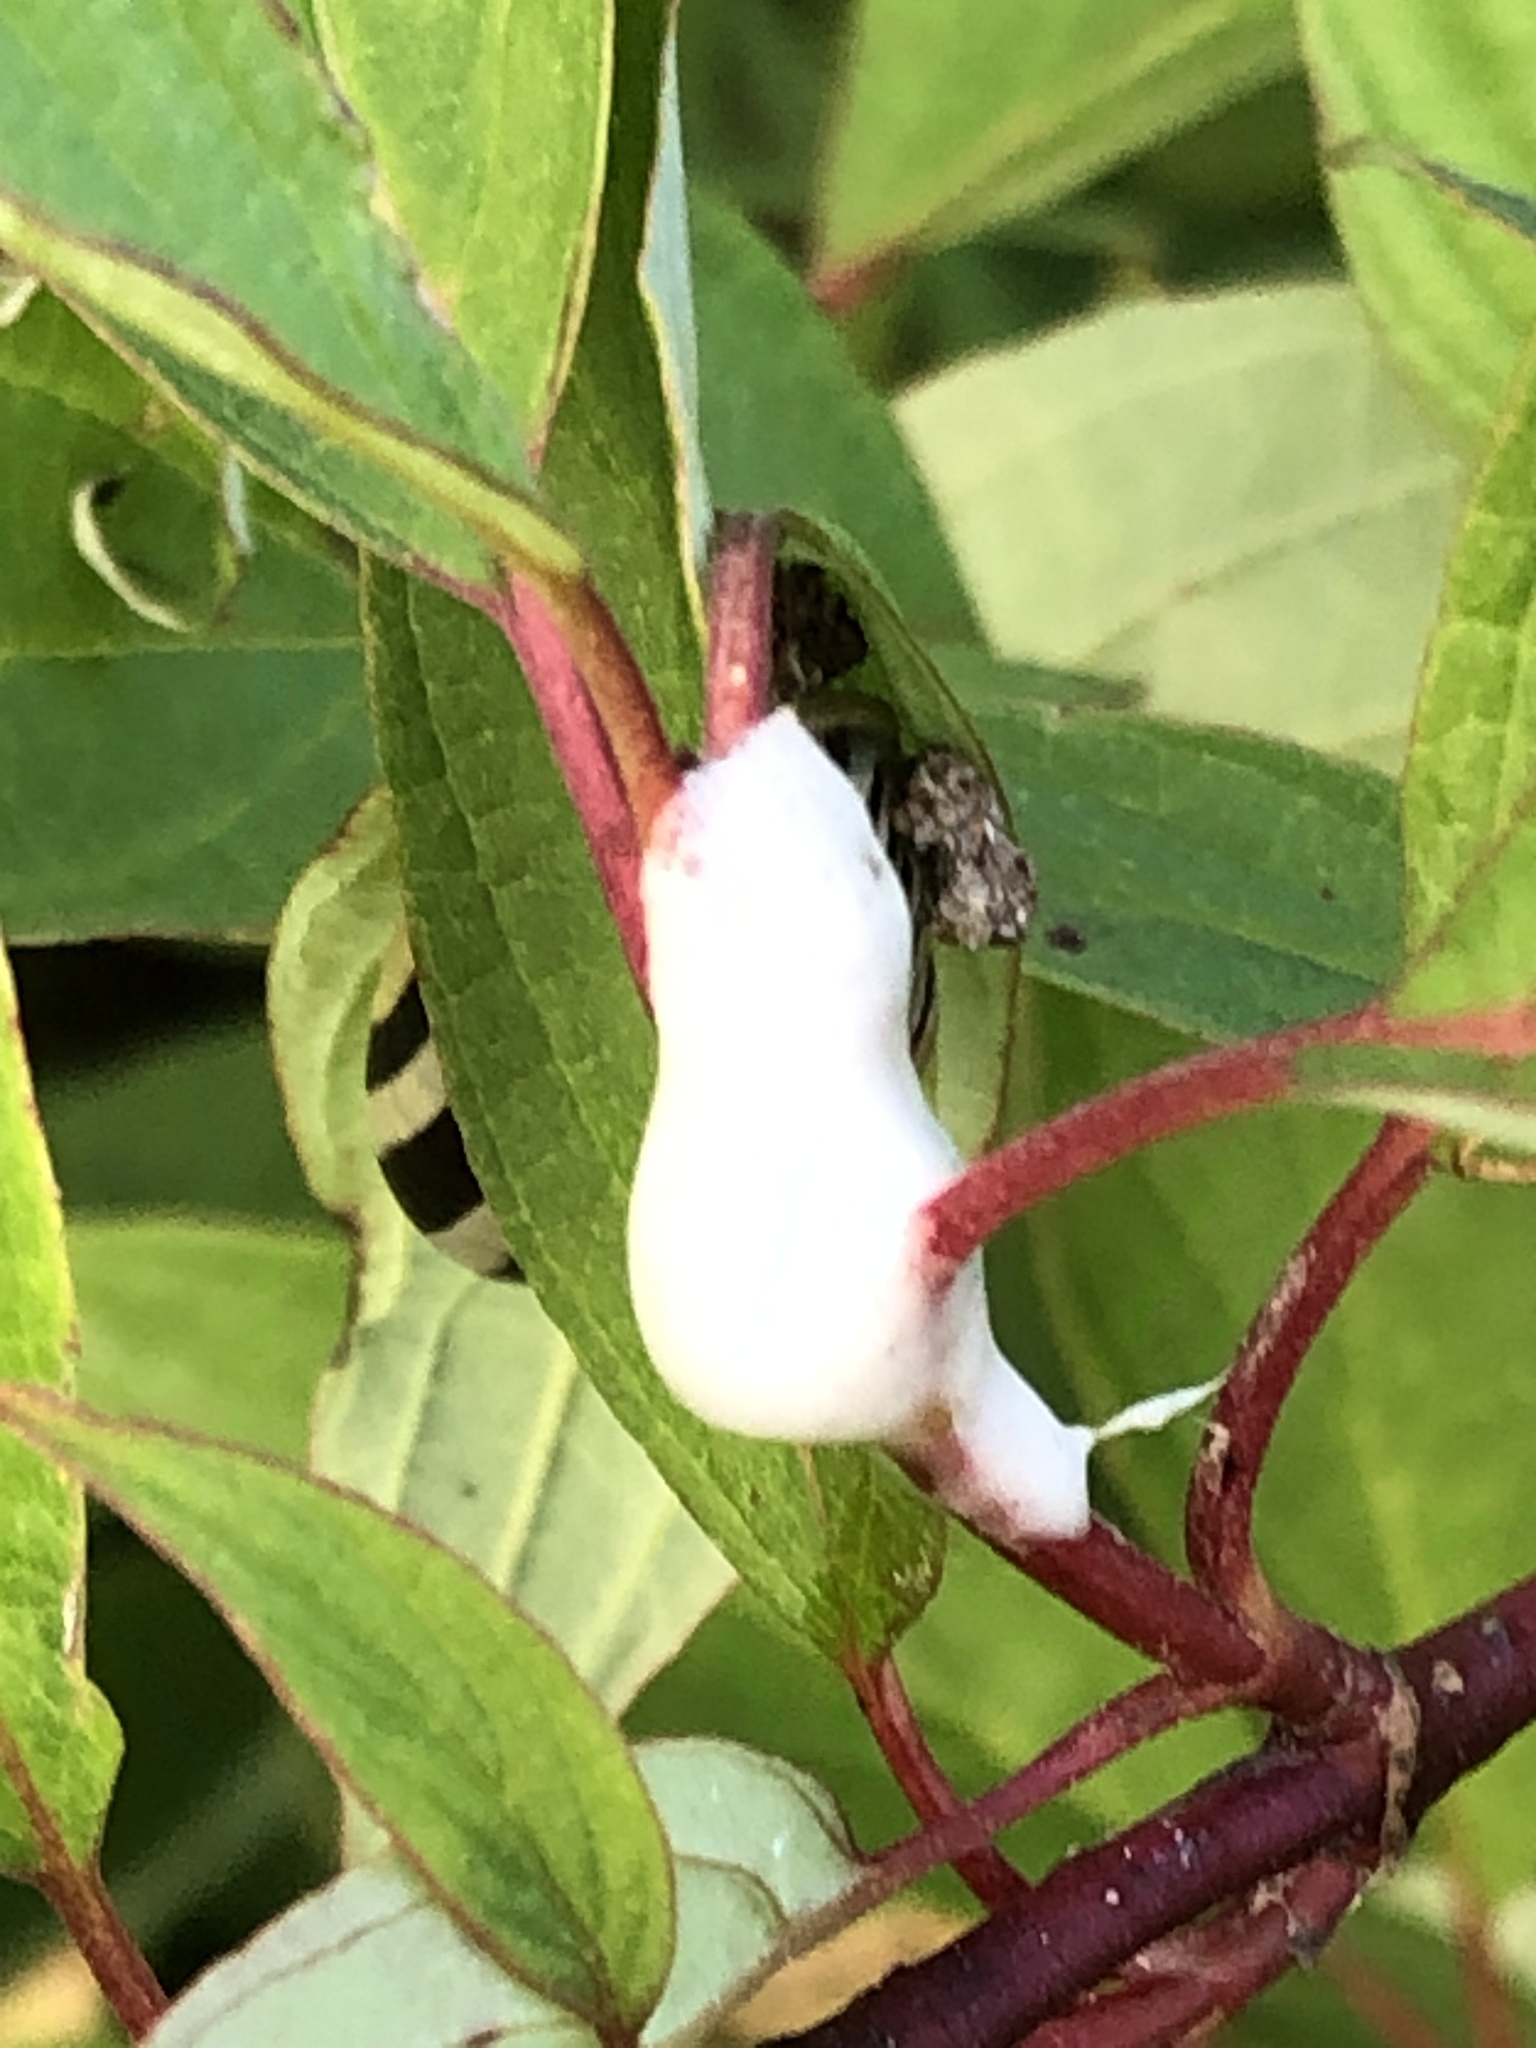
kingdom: Animalia
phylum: Arthropoda
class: Insecta
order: Hemiptera
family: Clastopteridae
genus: Clastoptera
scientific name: Clastoptera proteus
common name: Dogwood spittlebug
